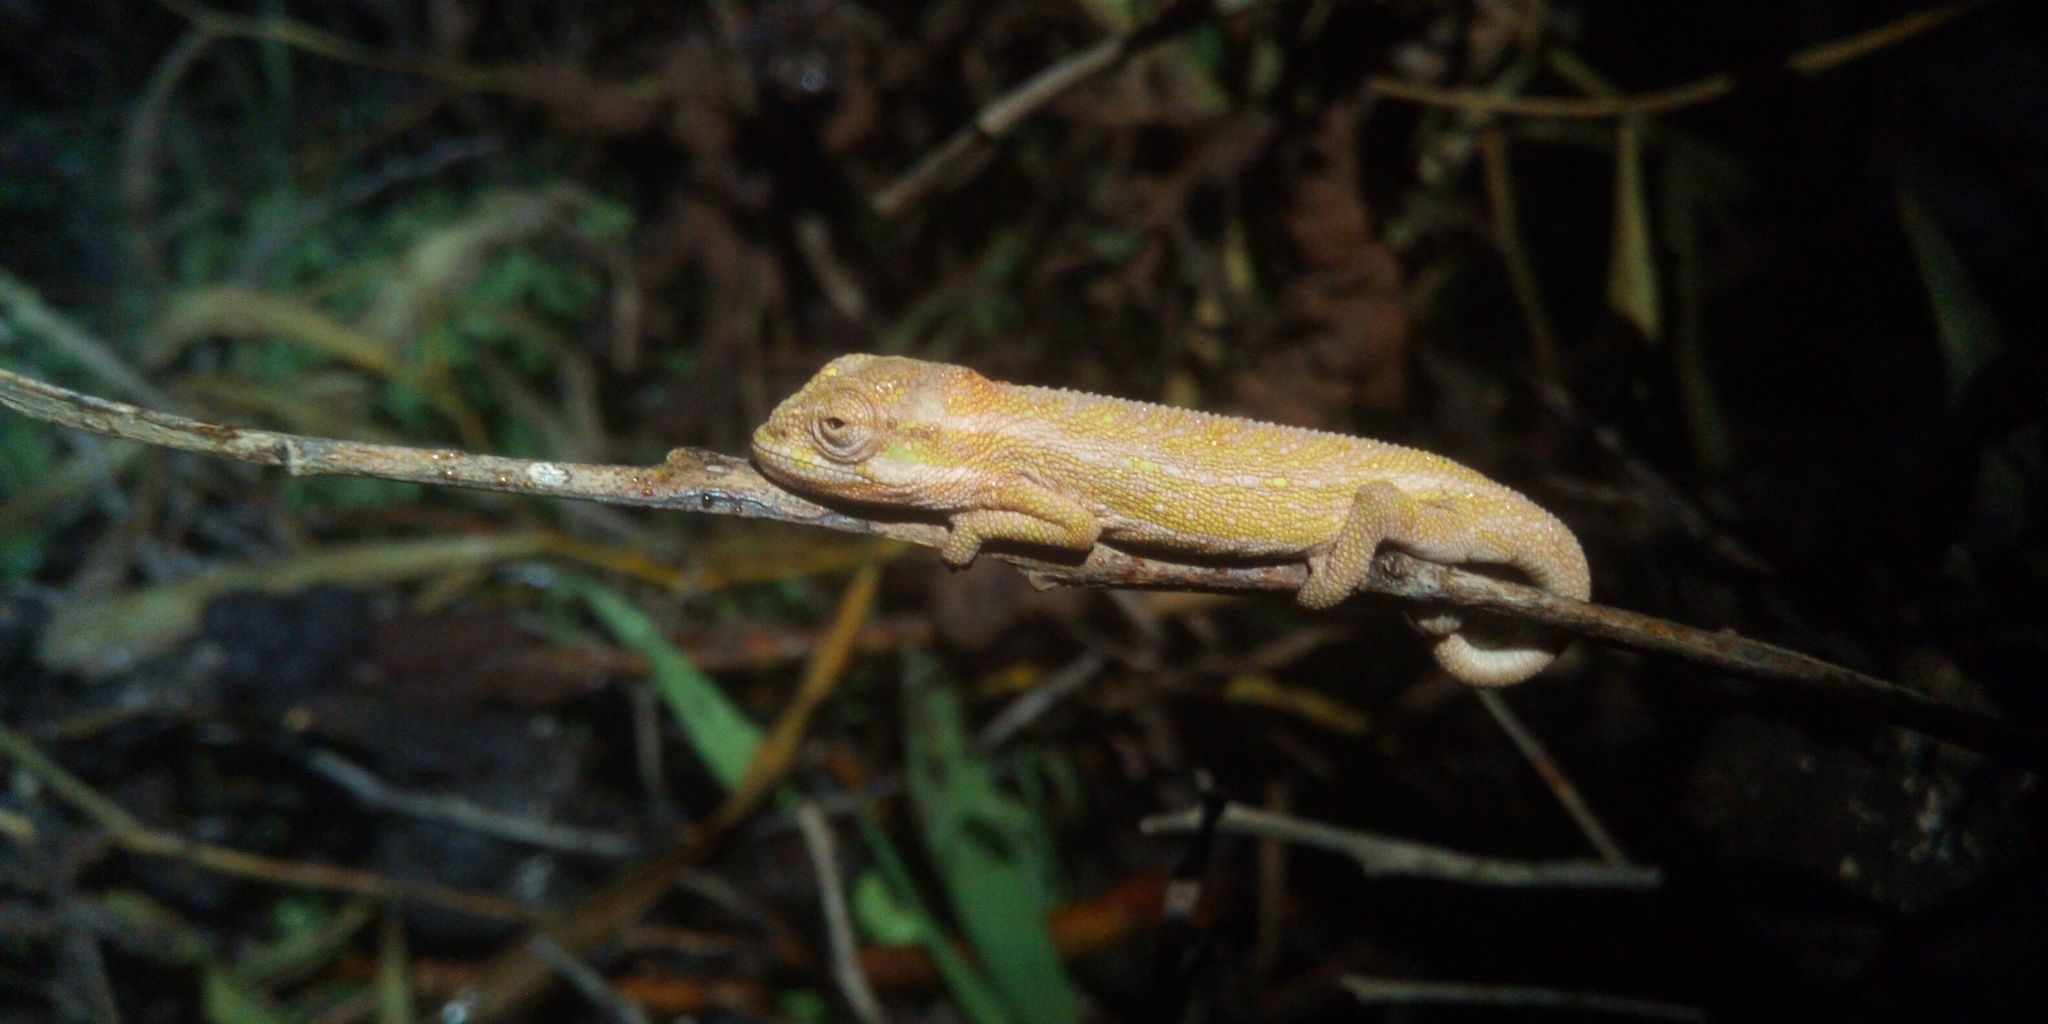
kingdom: Animalia
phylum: Chordata
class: Squamata
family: Chamaeleonidae
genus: Bradypodion
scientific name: Bradypodion pumilum
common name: Cape dwarf chameleon
